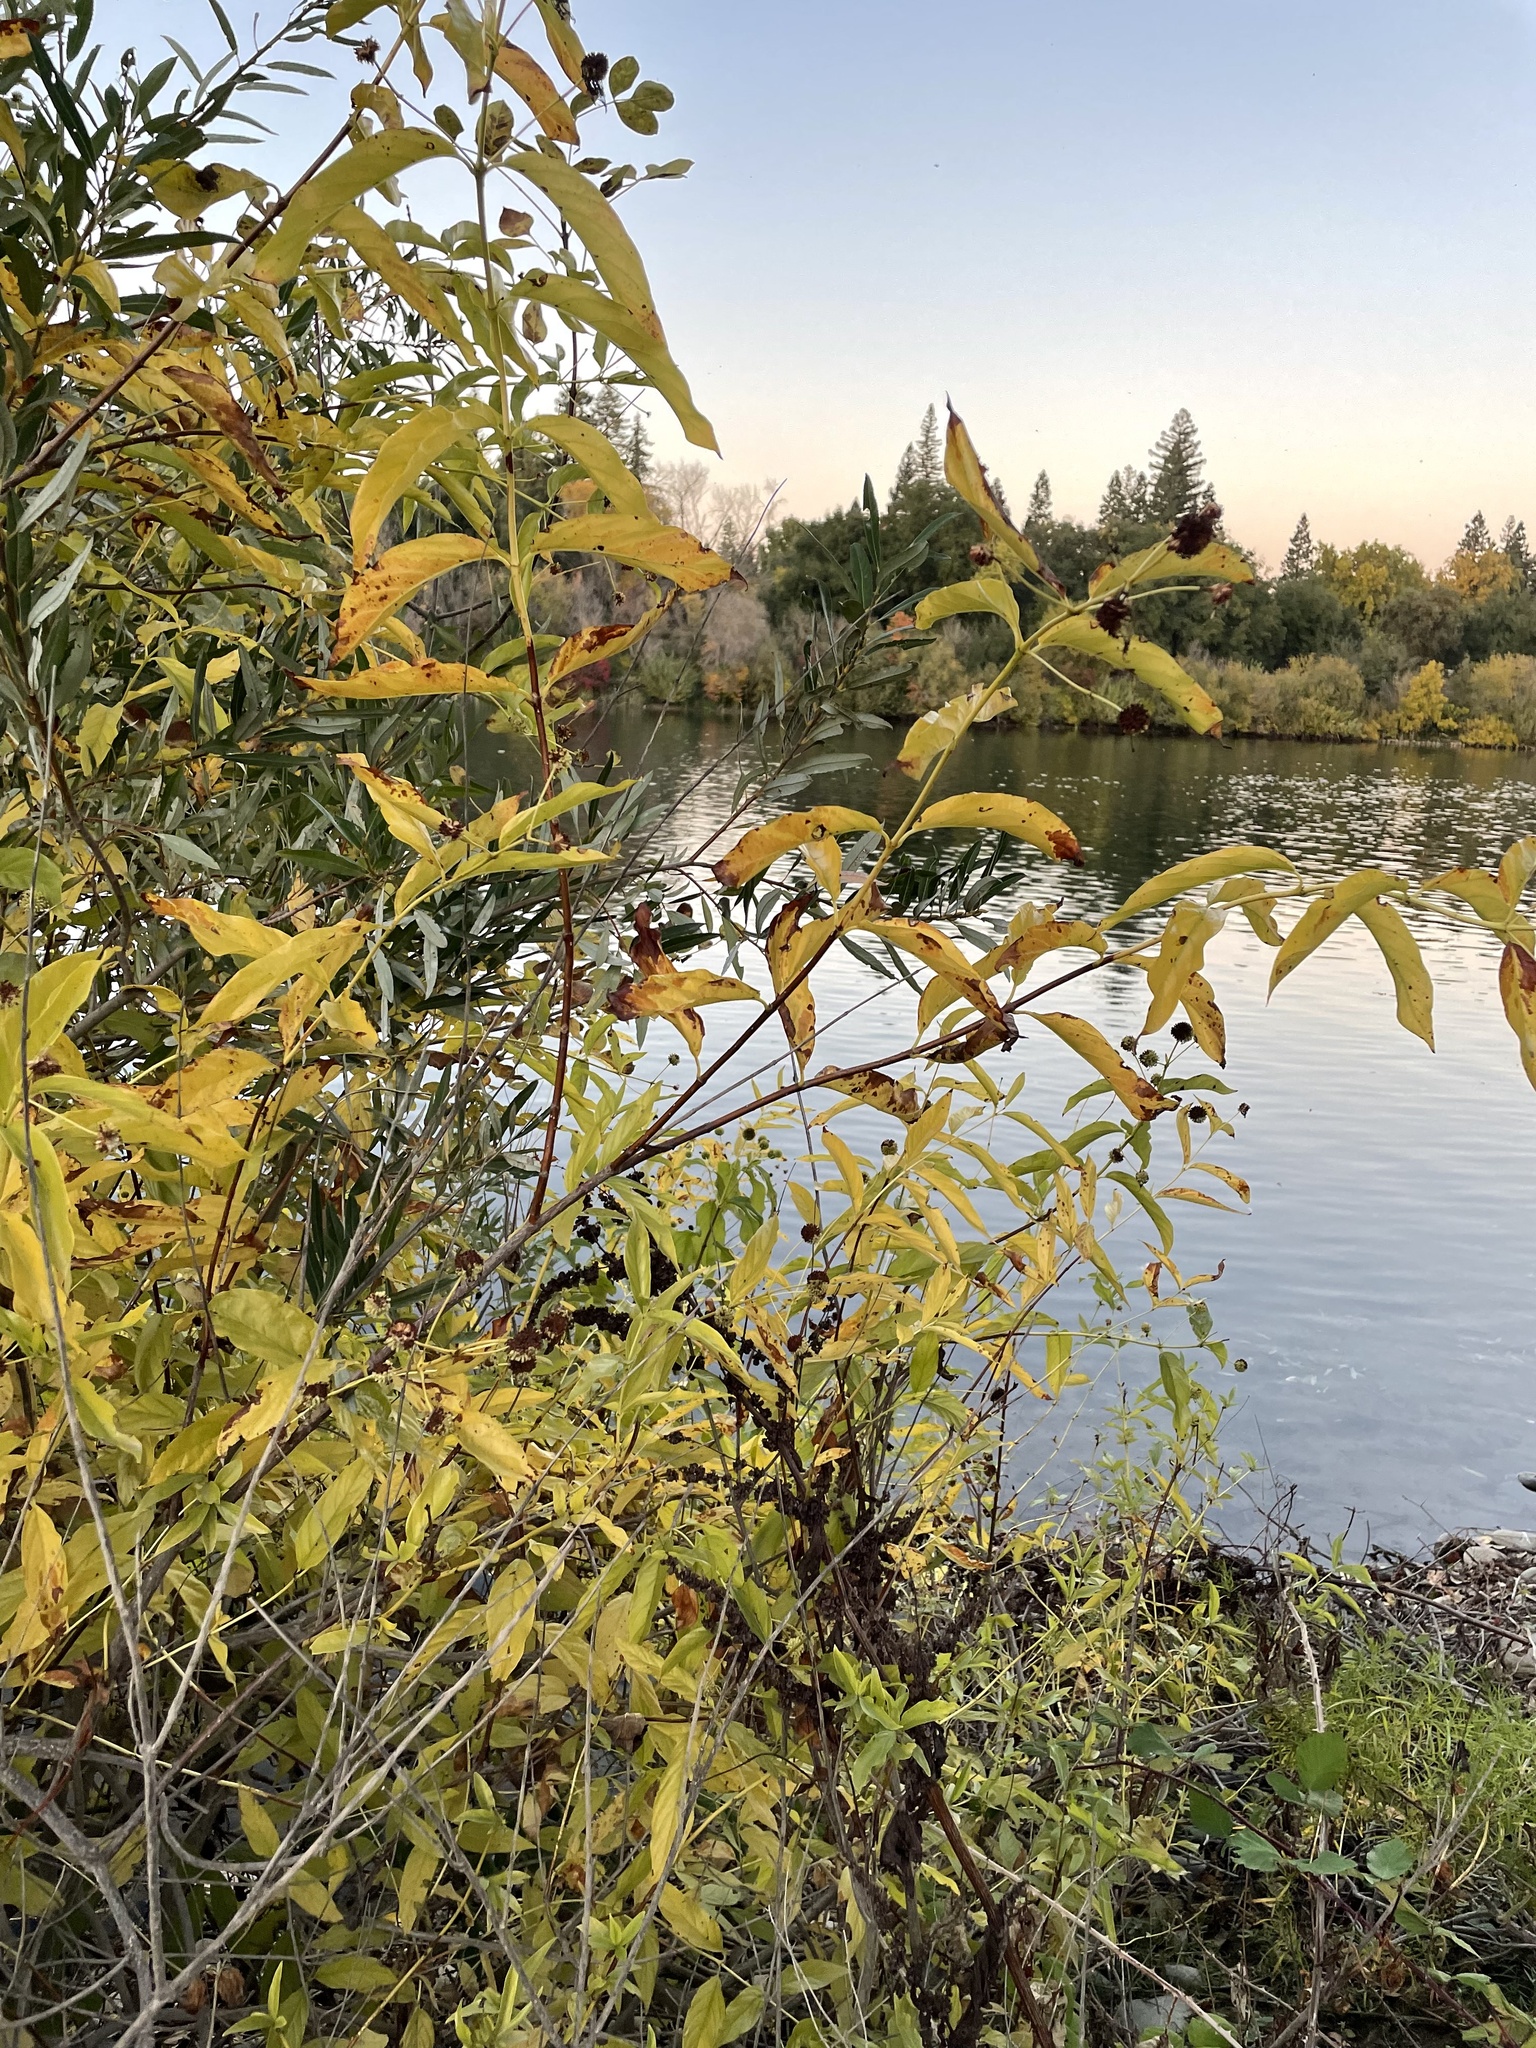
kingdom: Plantae
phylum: Tracheophyta
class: Magnoliopsida
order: Gentianales
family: Rubiaceae
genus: Cephalanthus
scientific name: Cephalanthus occidentalis
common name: Button-willow
